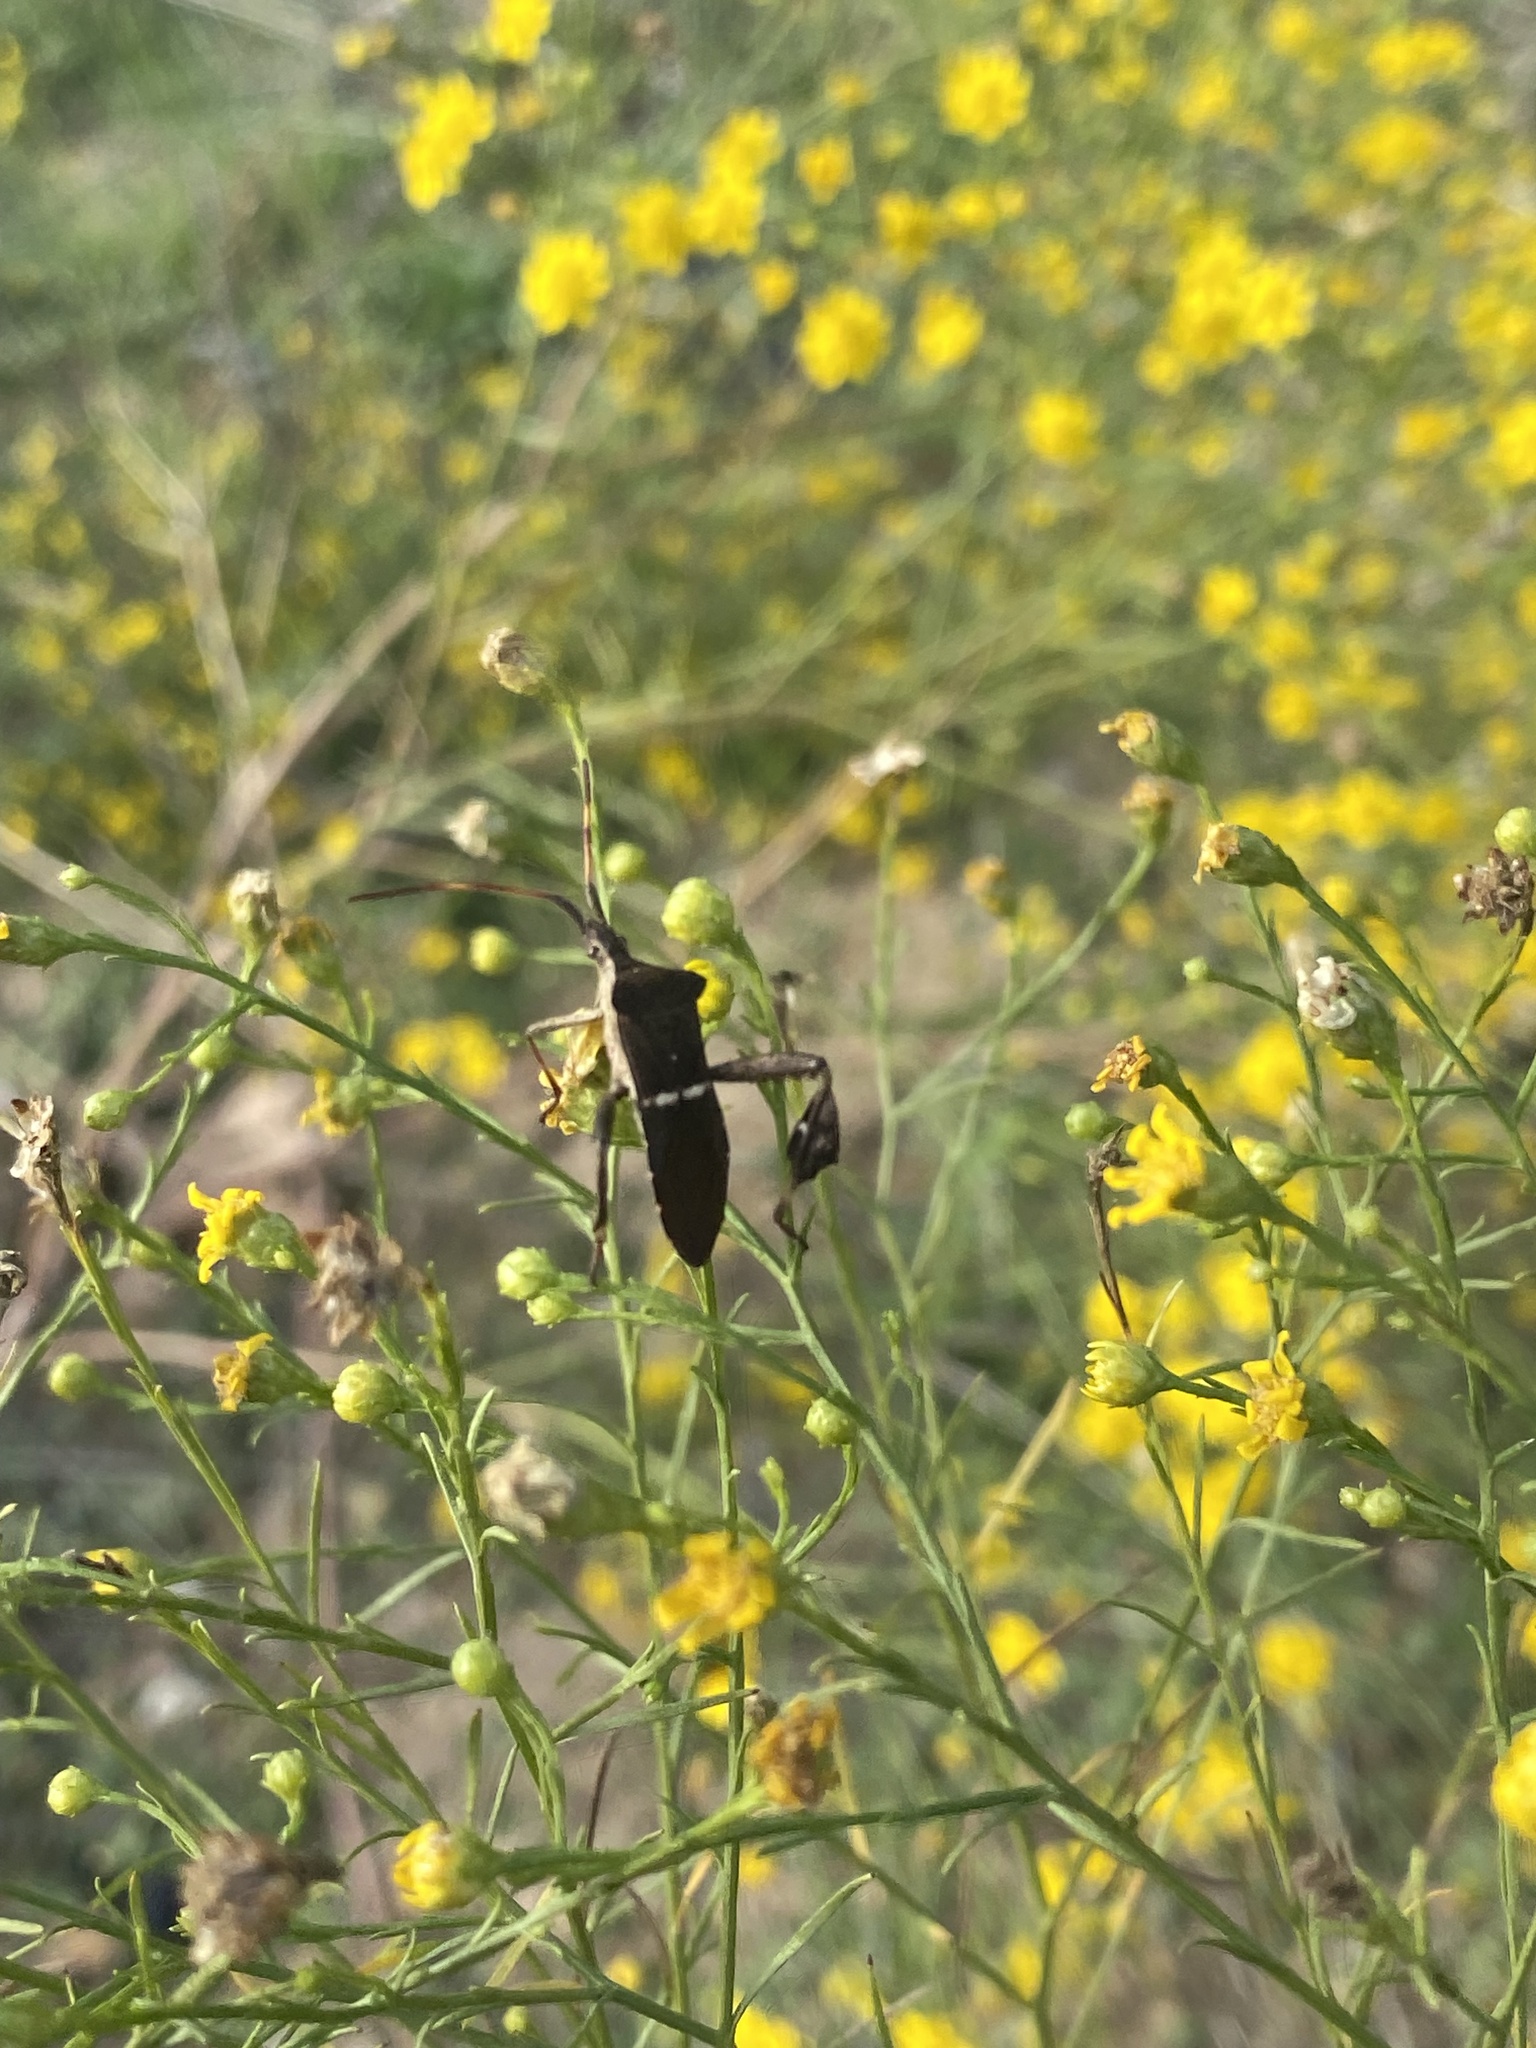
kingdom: Animalia
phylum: Arthropoda
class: Insecta
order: Hemiptera
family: Coreidae
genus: Leptoglossus
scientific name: Leptoglossus phyllopus
